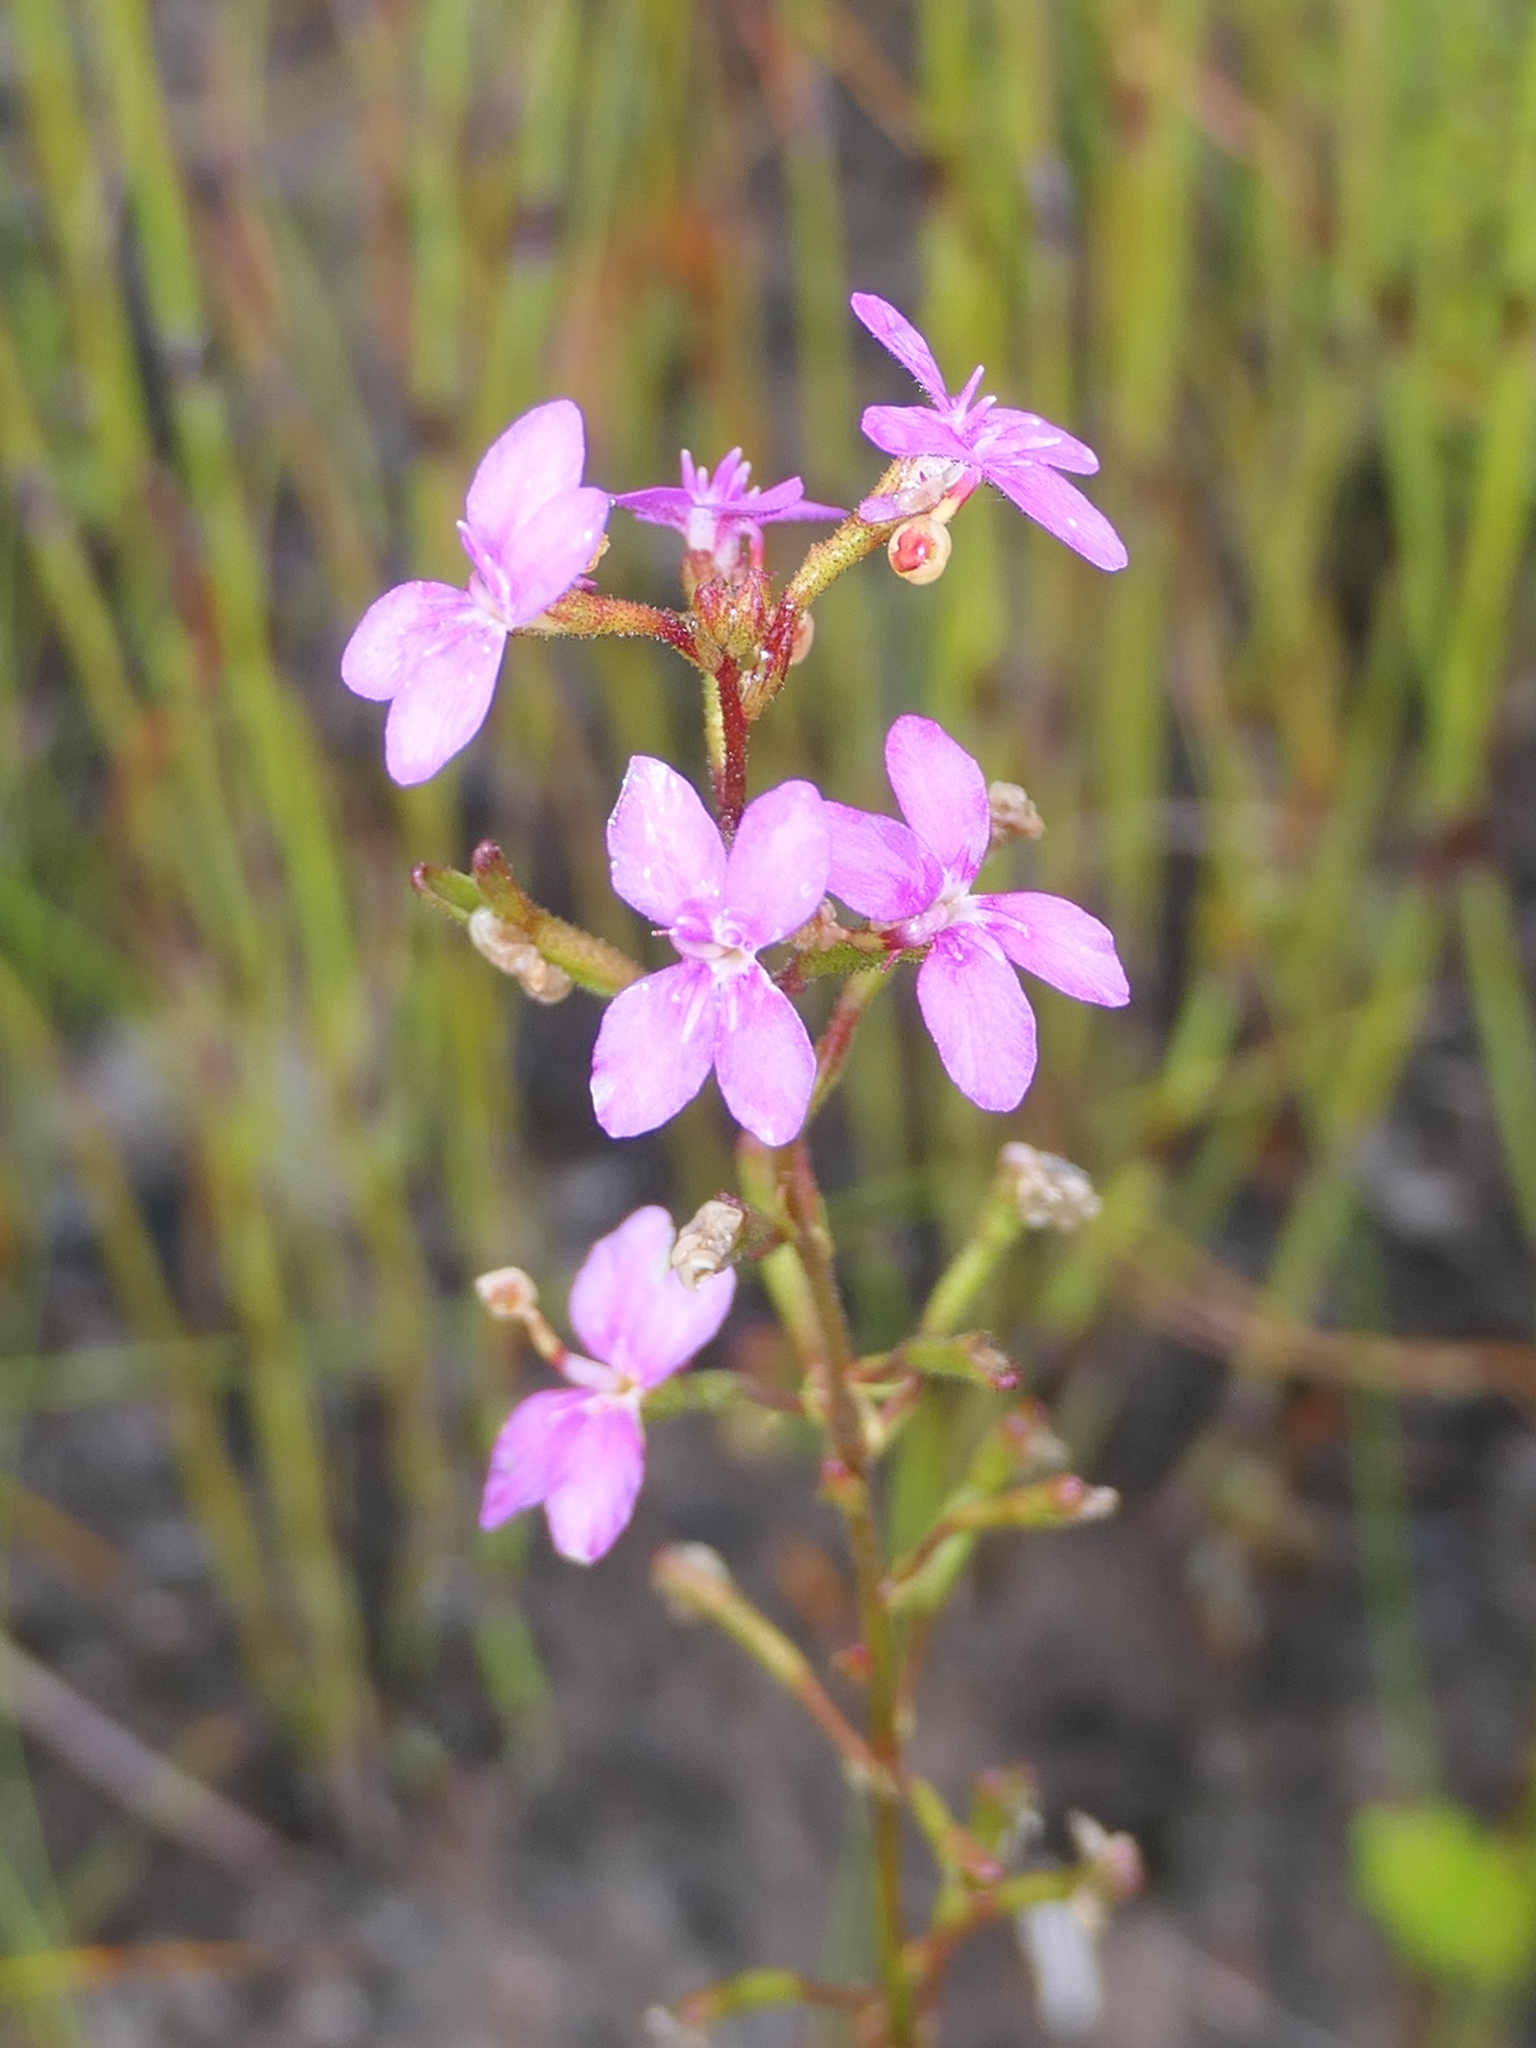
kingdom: Plantae
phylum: Tracheophyta
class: Magnoliopsida
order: Asterales
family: Stylidiaceae
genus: Stylidium
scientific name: Stylidium lineare
